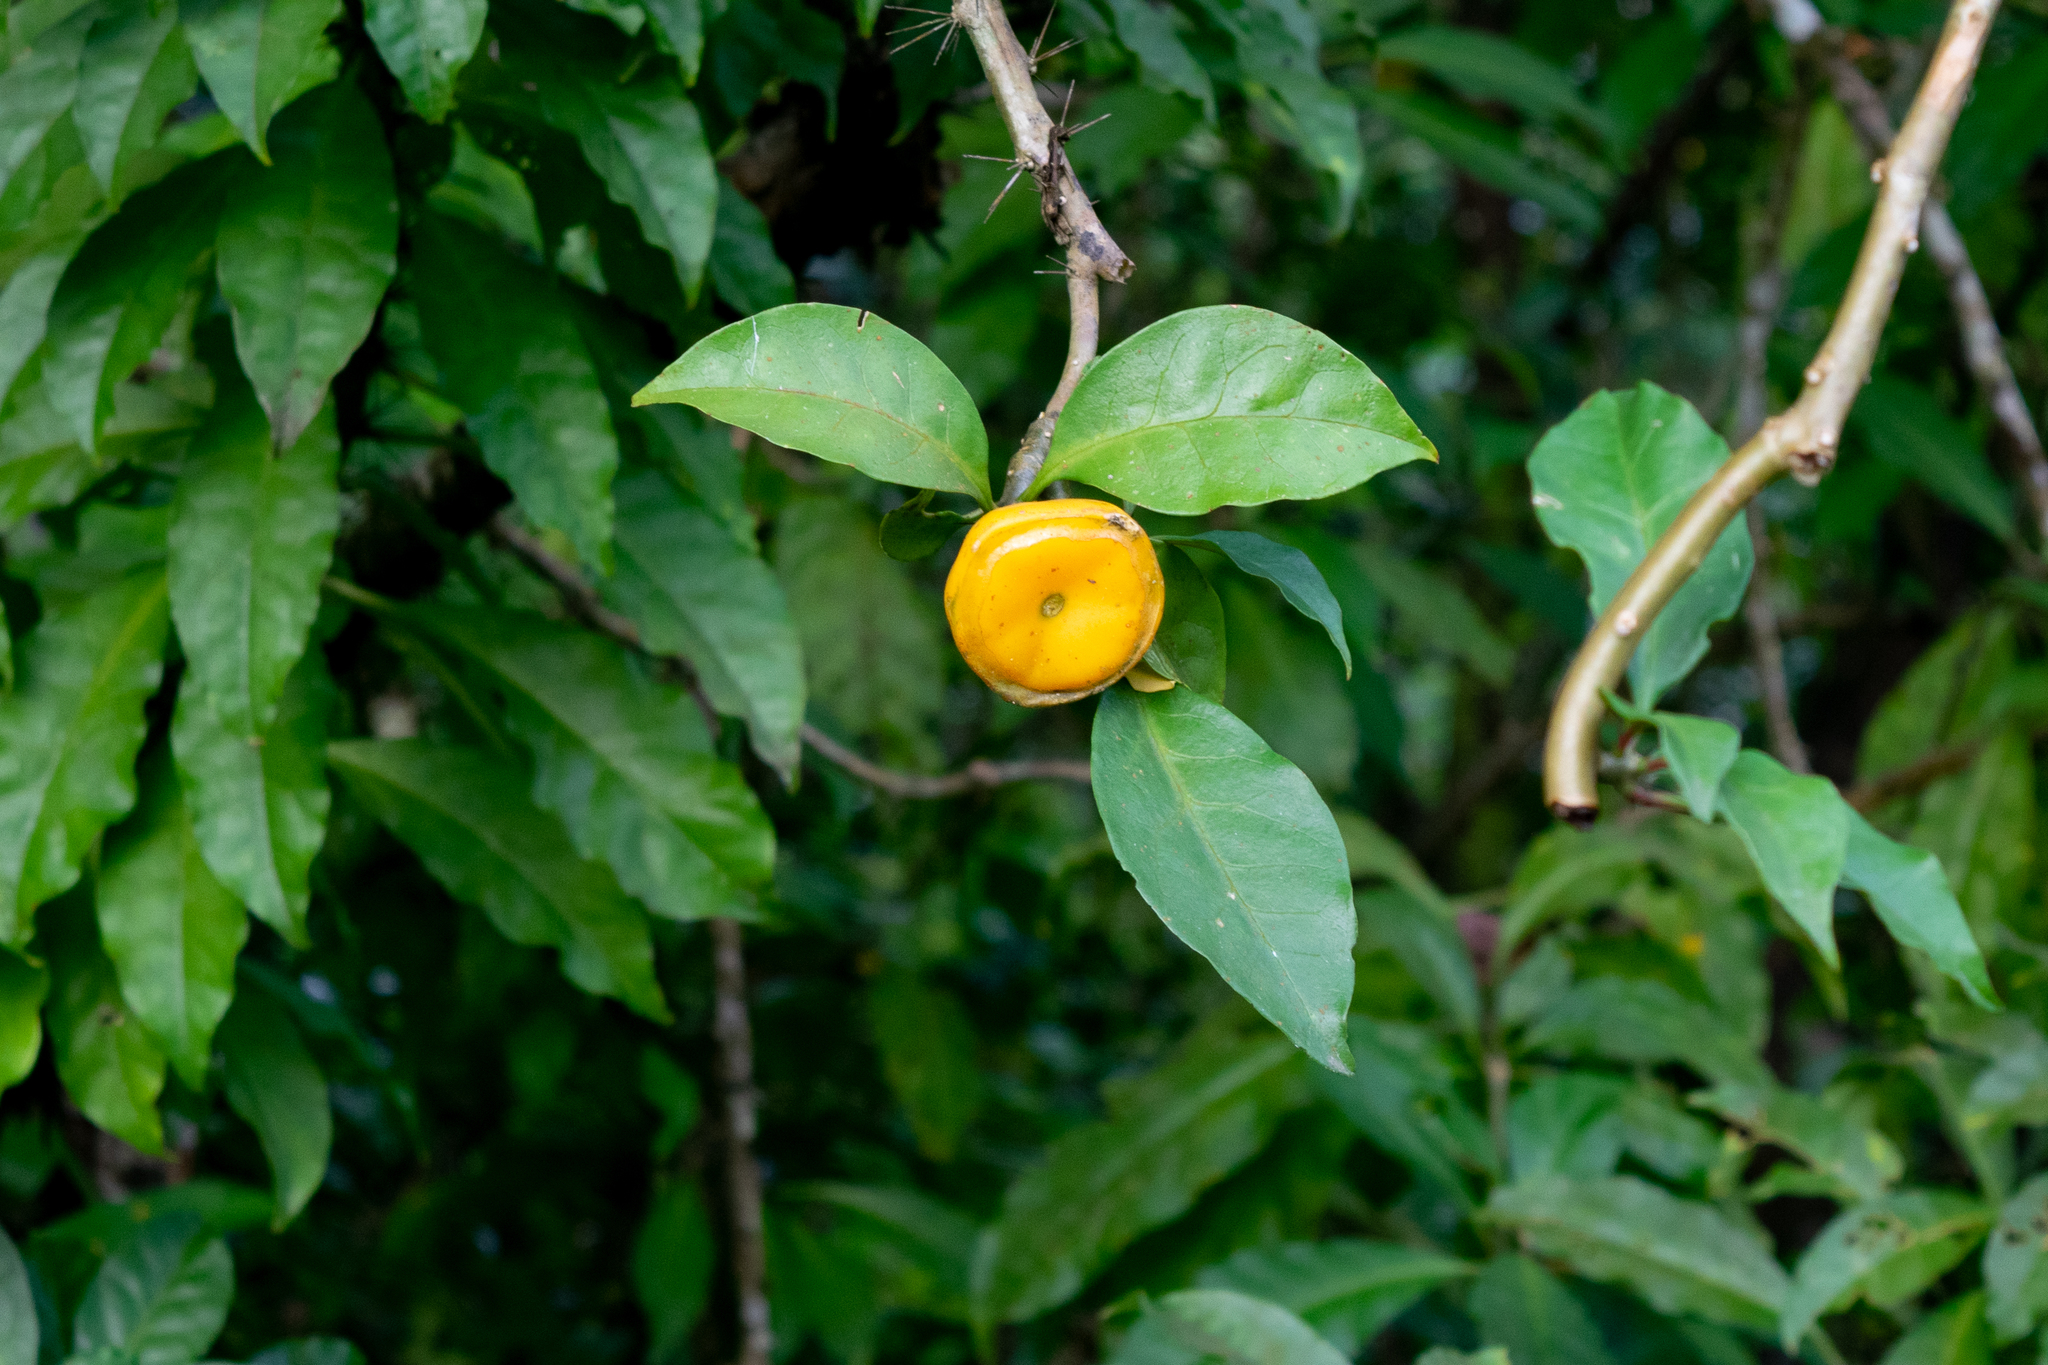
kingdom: Plantae
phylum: Tracheophyta
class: Magnoliopsida
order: Caryophyllales
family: Cactaceae
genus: Leuenbergeria
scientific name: Leuenbergeria bleo
